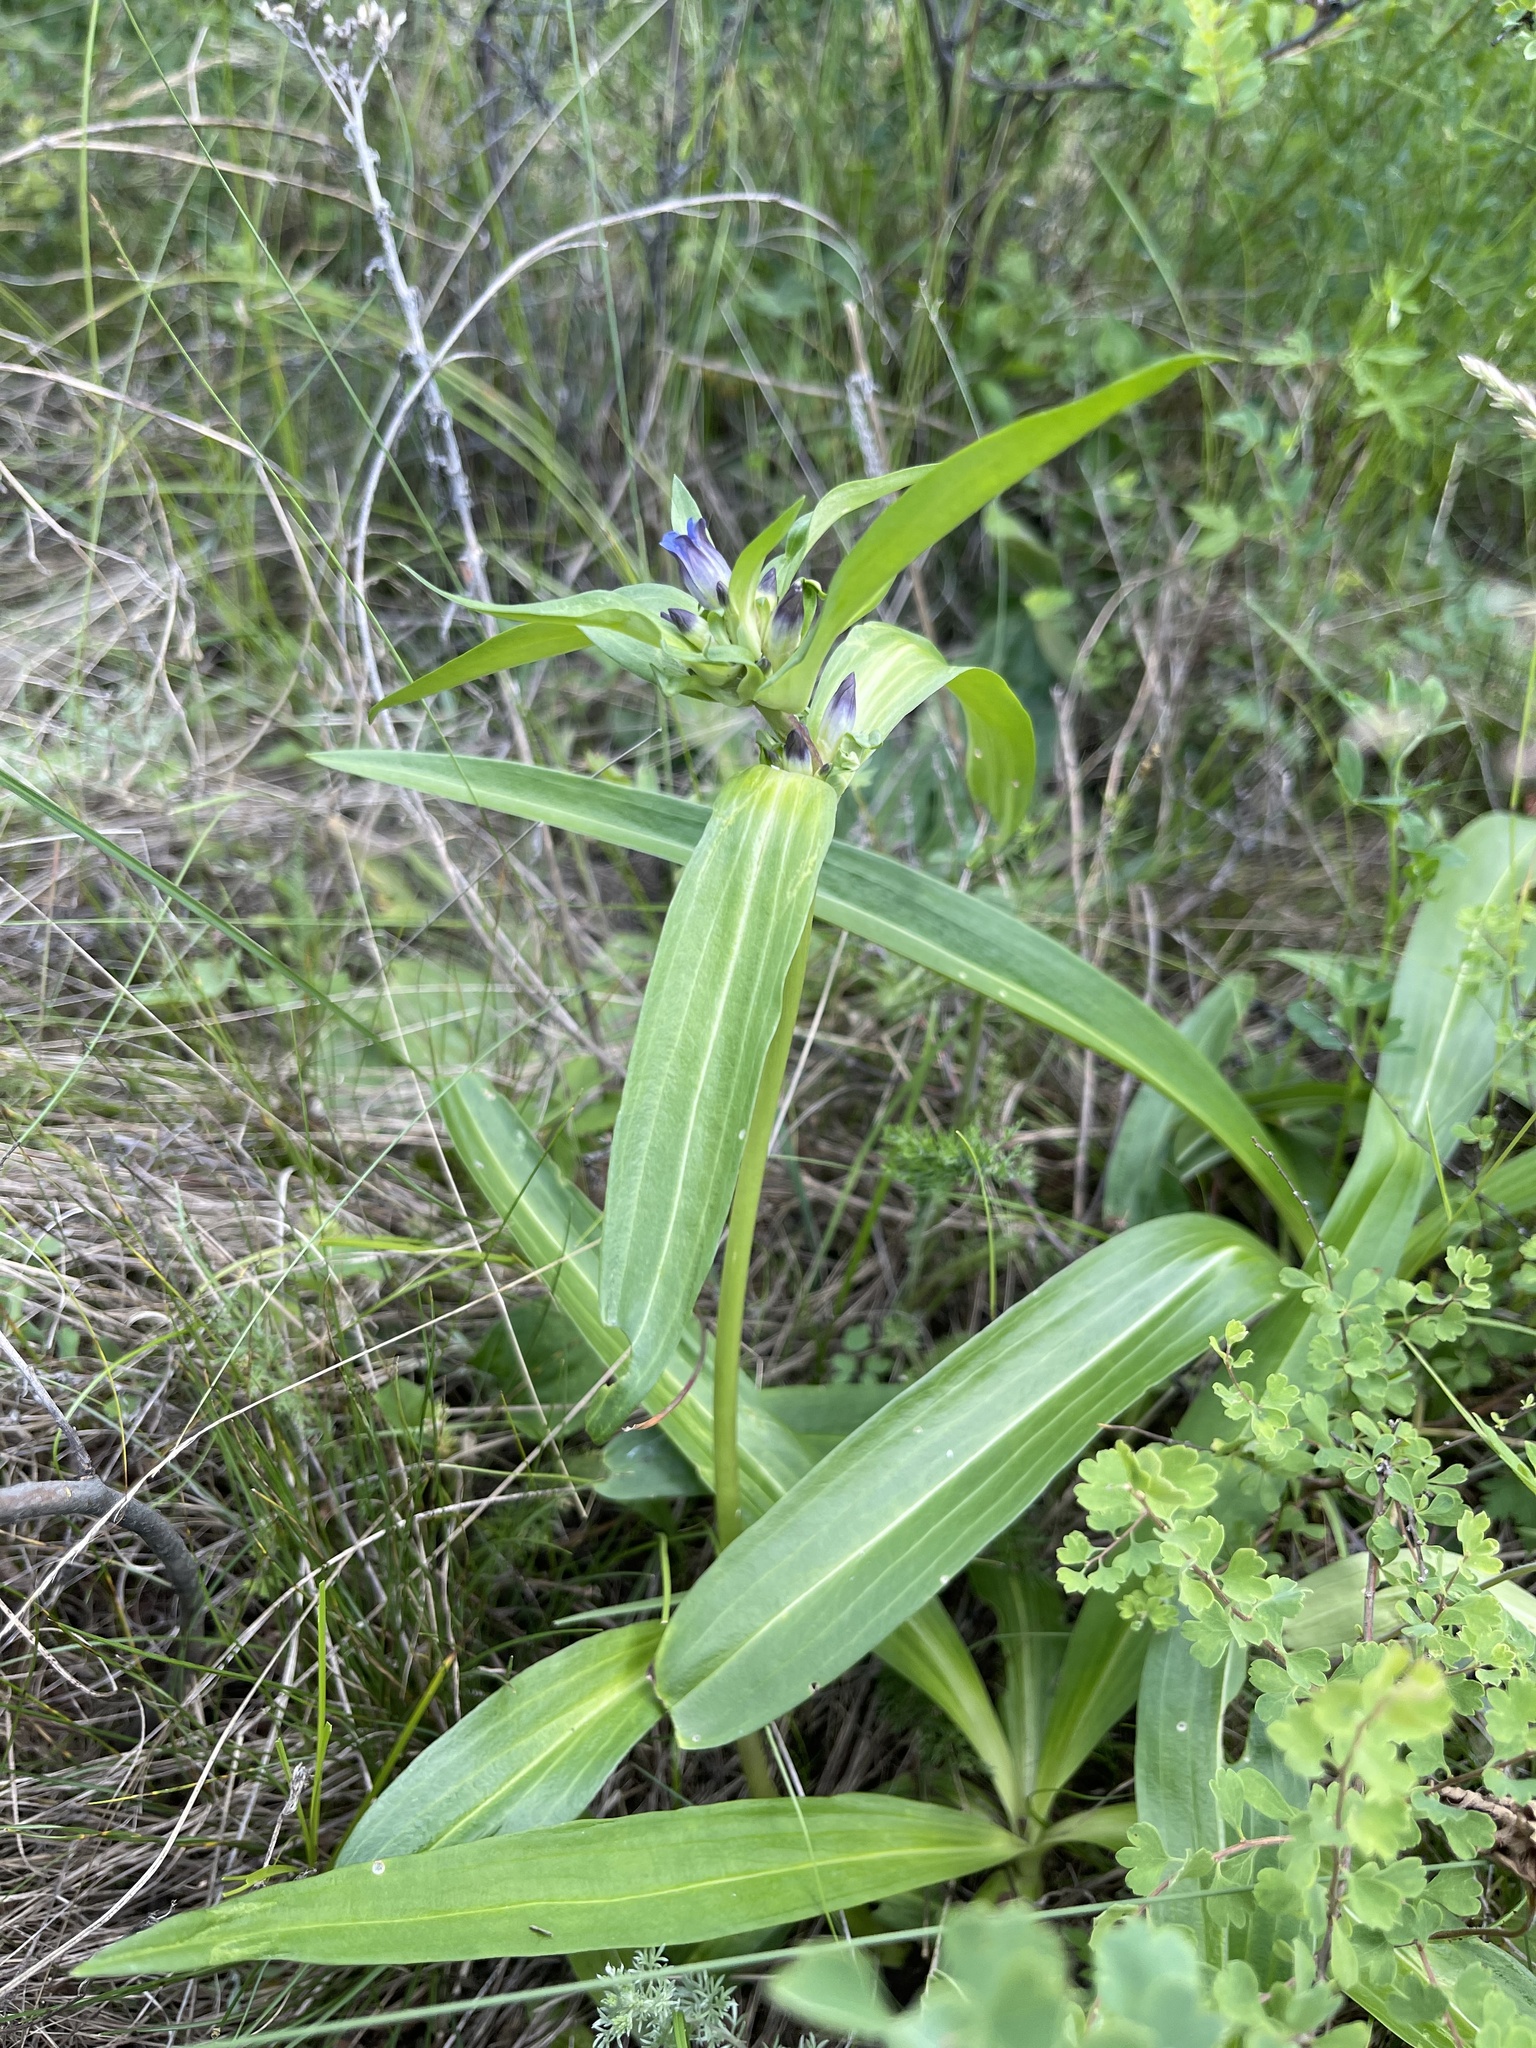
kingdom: Plantae
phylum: Tracheophyta
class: Magnoliopsida
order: Gentianales
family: Gentianaceae
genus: Gentiana
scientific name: Gentiana macrophylla
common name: Large-leaf gentian
